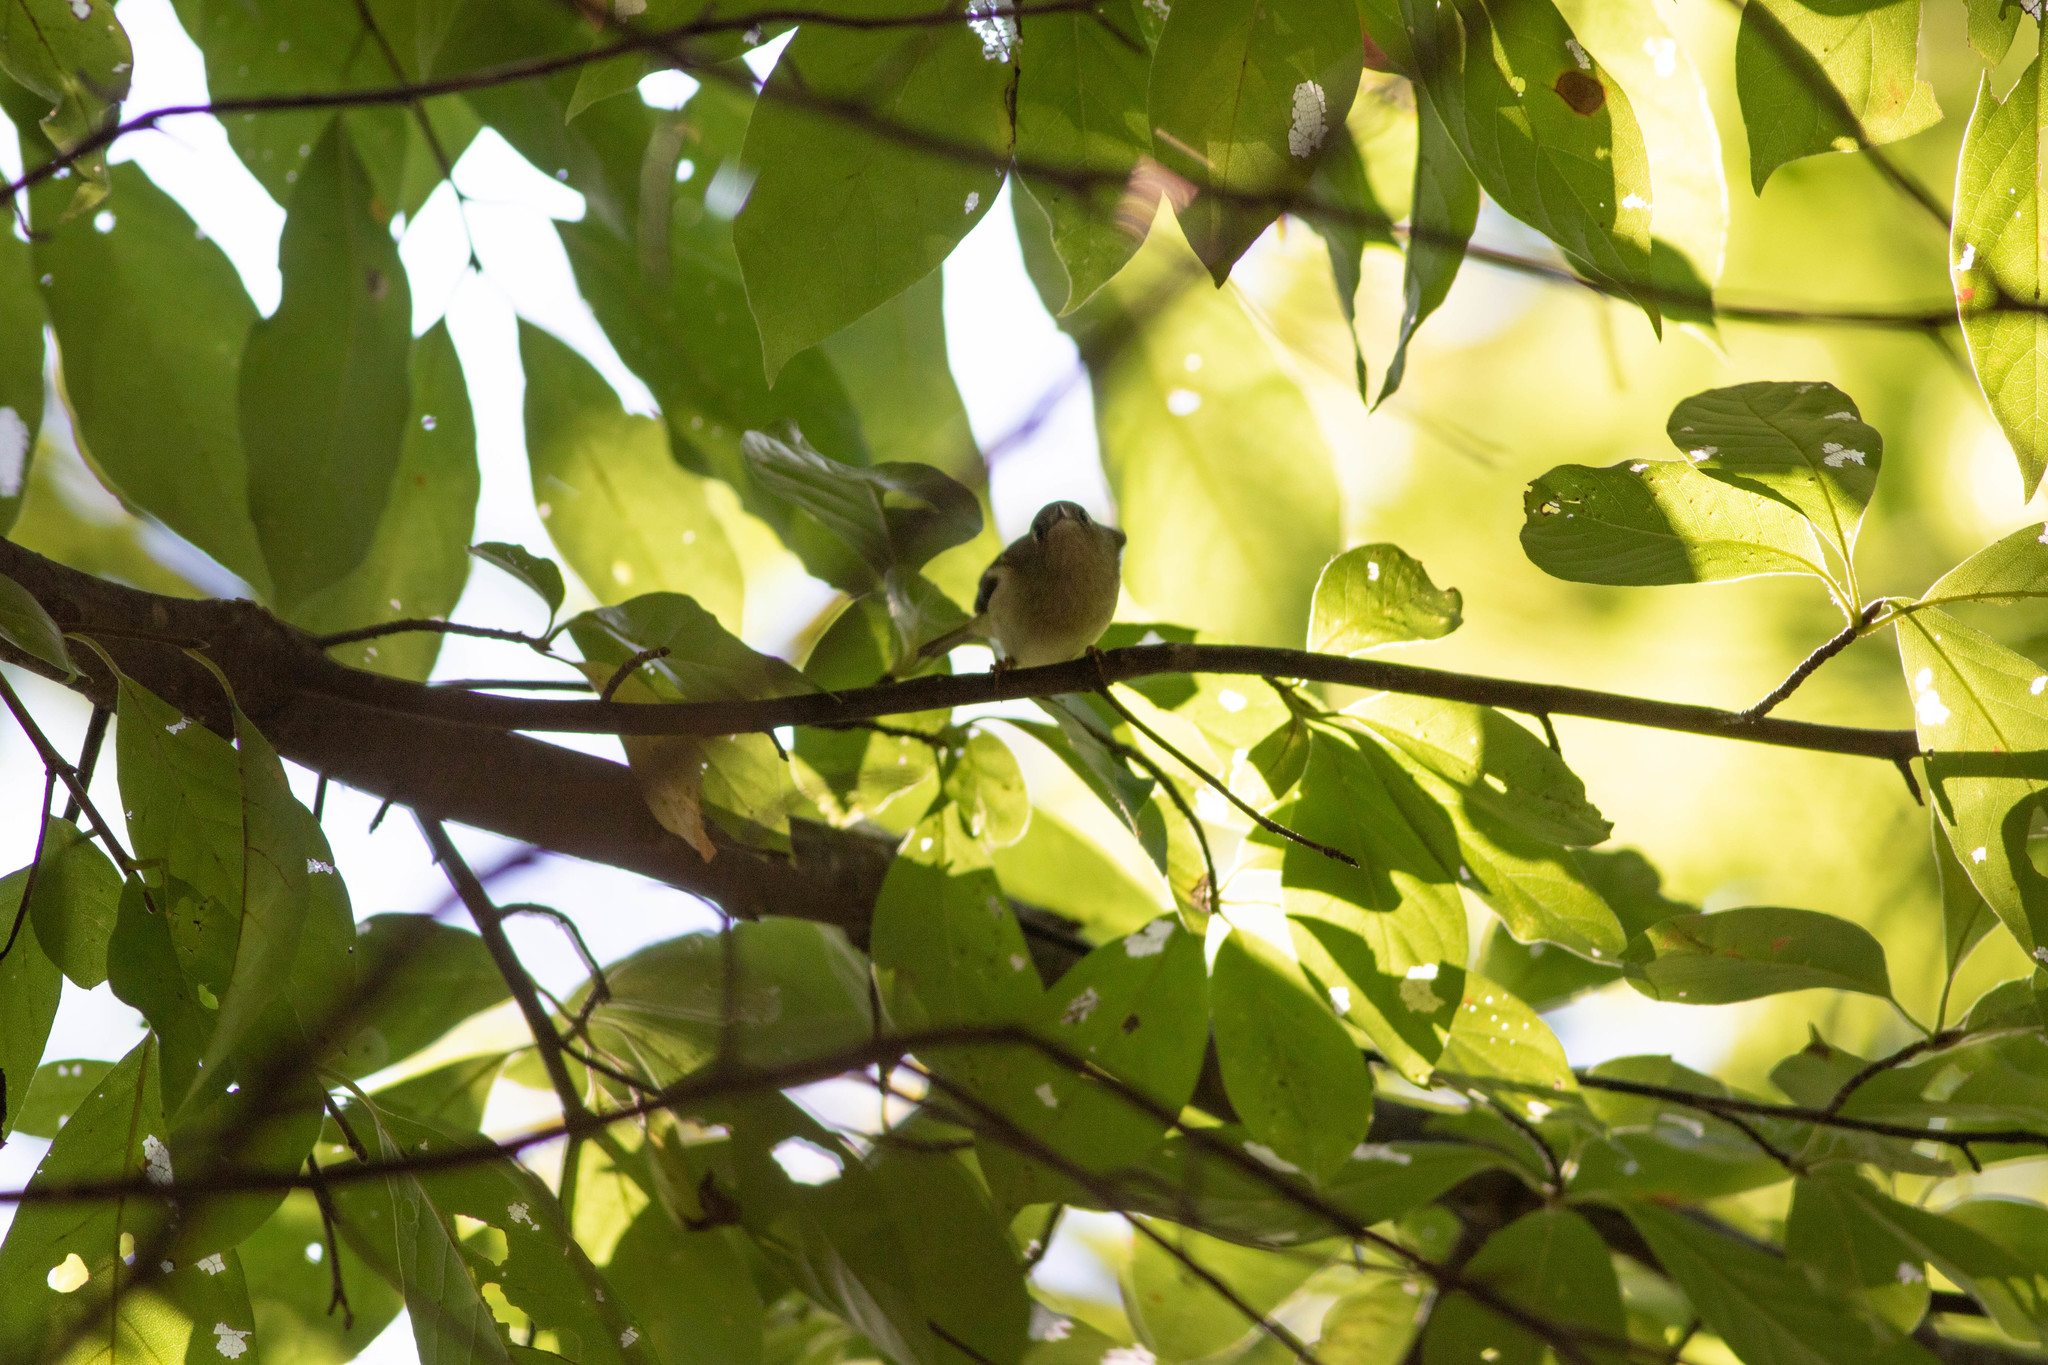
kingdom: Animalia
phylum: Chordata
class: Aves
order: Passeriformes
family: Regulidae
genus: Regulus
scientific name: Regulus calendula
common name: Ruby-crowned kinglet
